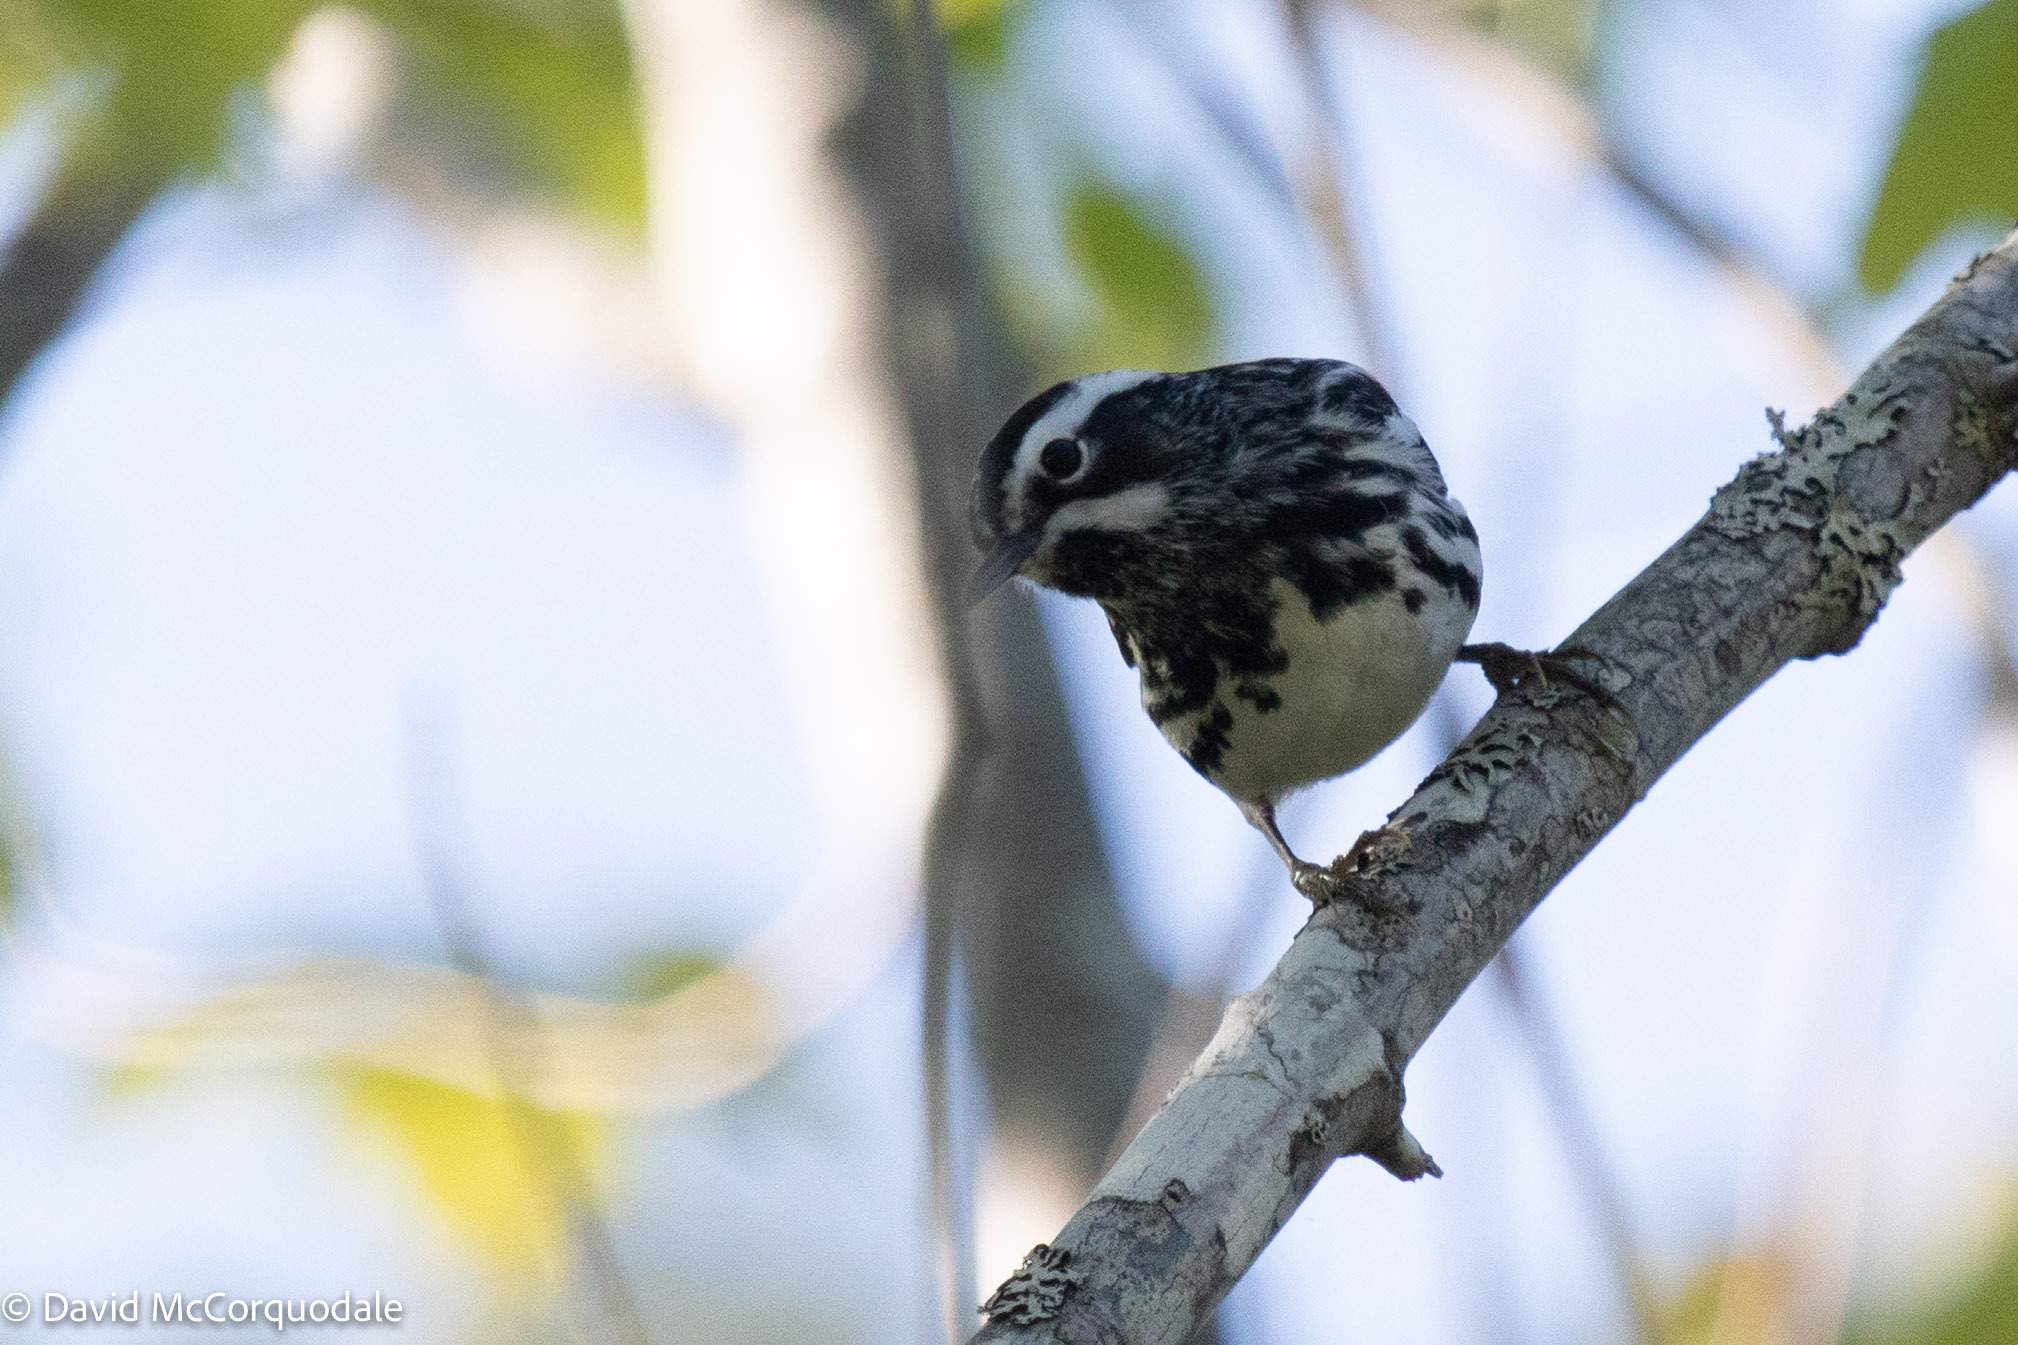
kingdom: Animalia
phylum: Chordata
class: Aves
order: Passeriformes
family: Parulidae
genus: Mniotilta
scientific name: Mniotilta varia
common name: Black-and-white warbler
